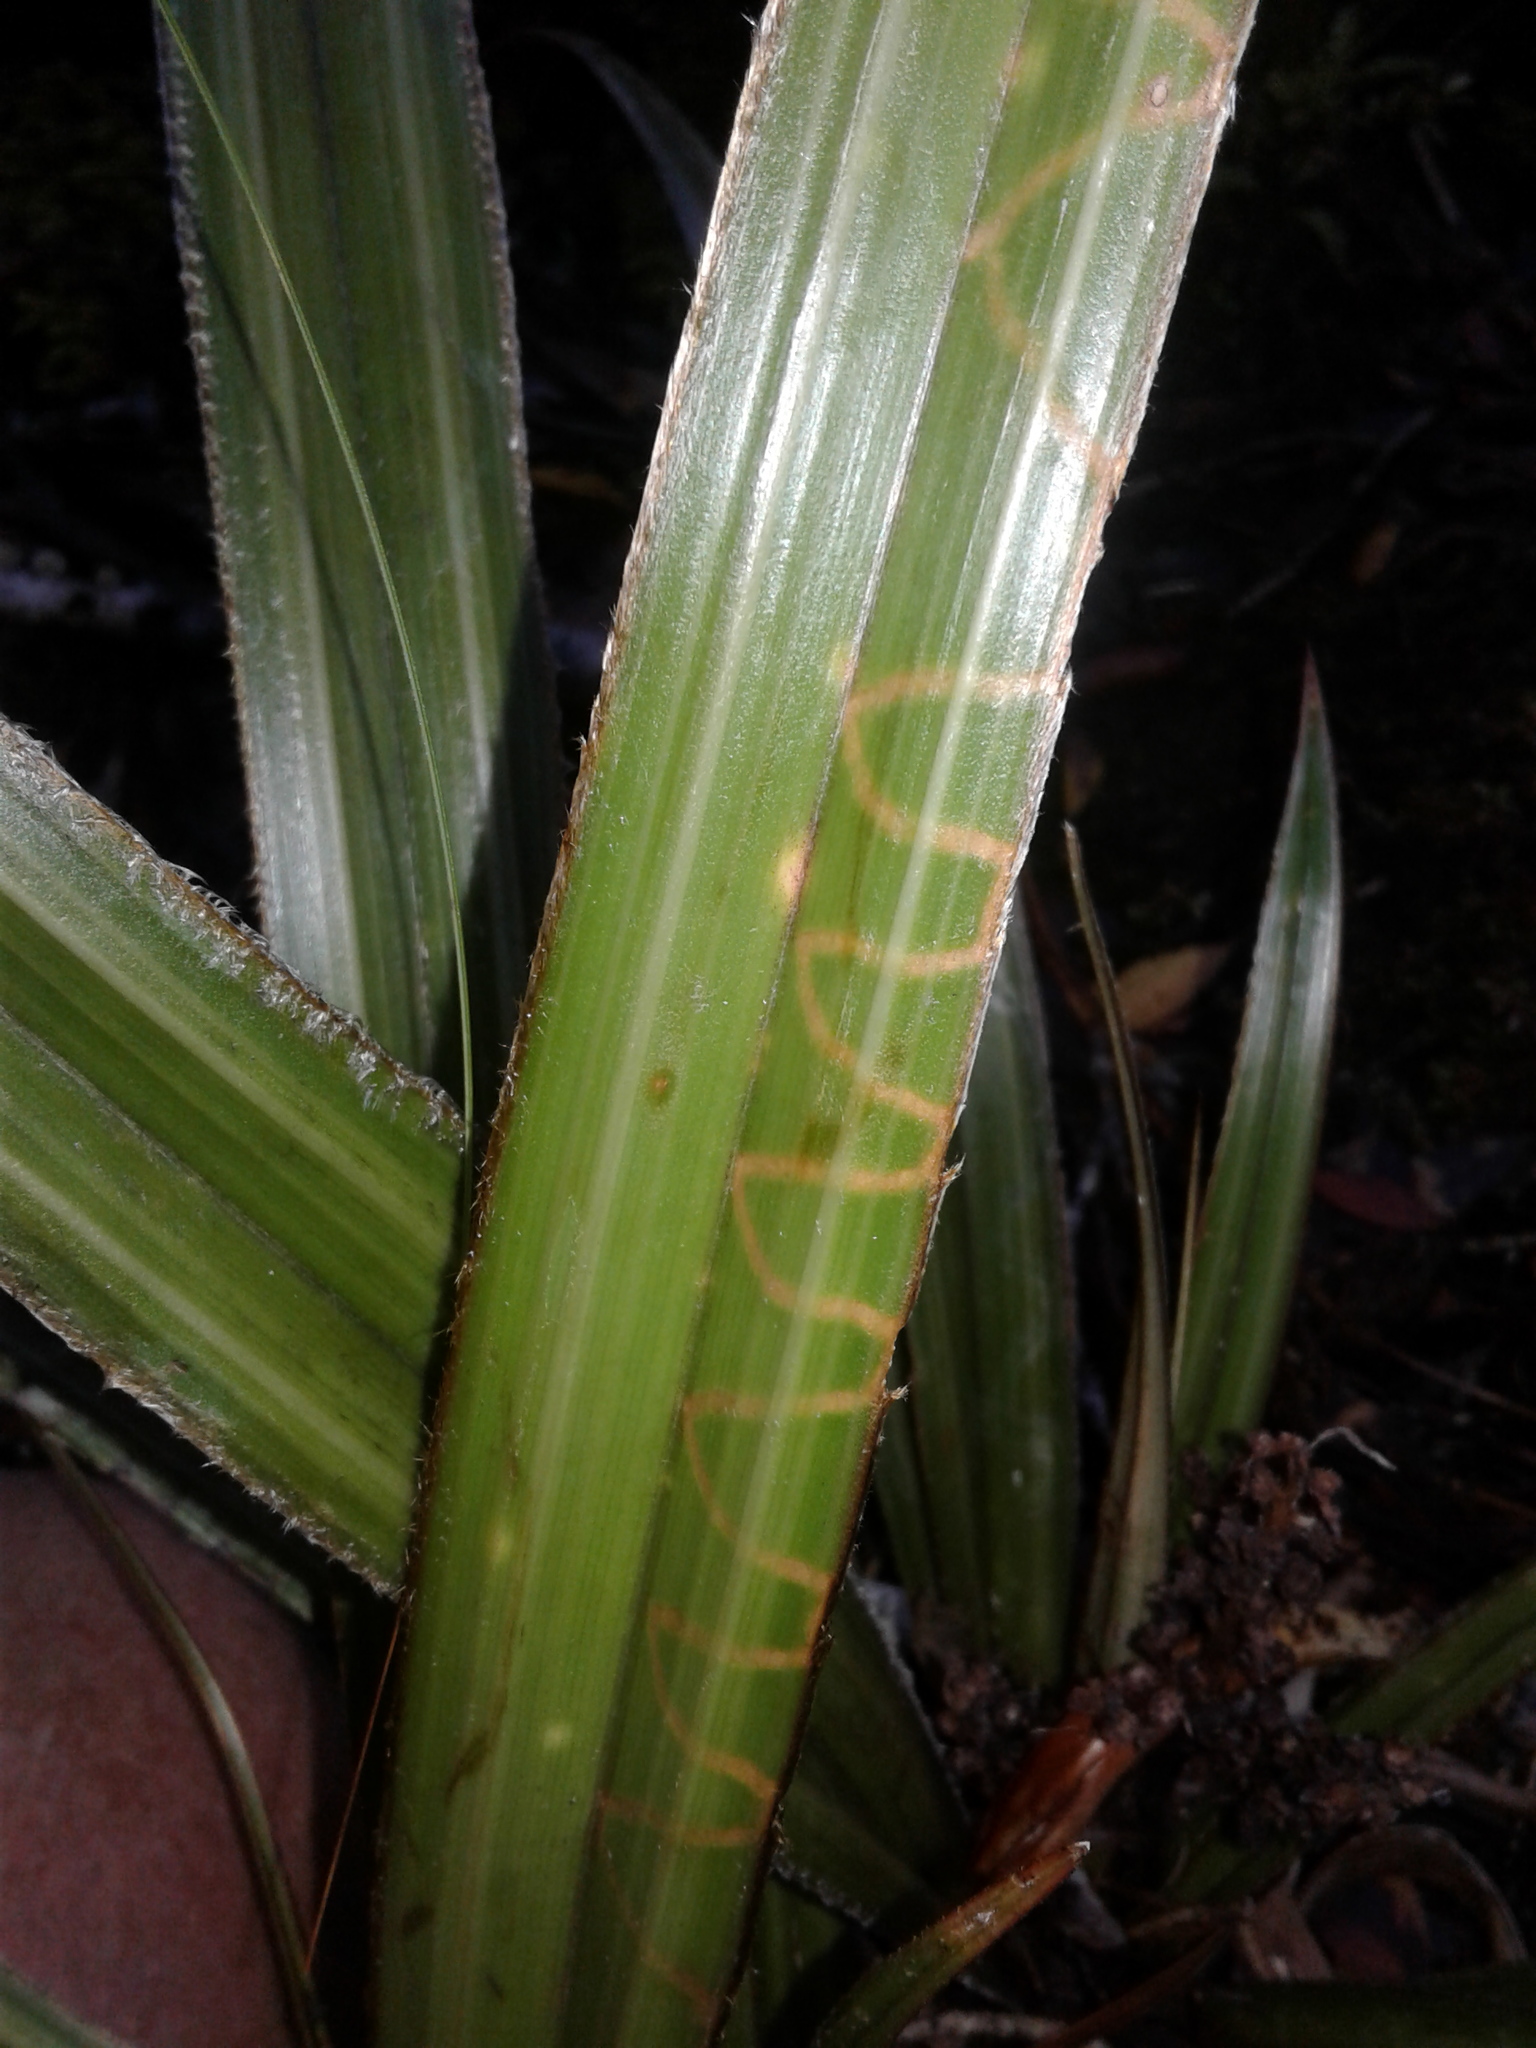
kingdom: Animalia
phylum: Arthropoda
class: Insecta
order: Lepidoptera
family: Plutellidae
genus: Charixena
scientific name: Charixena iridoxa
